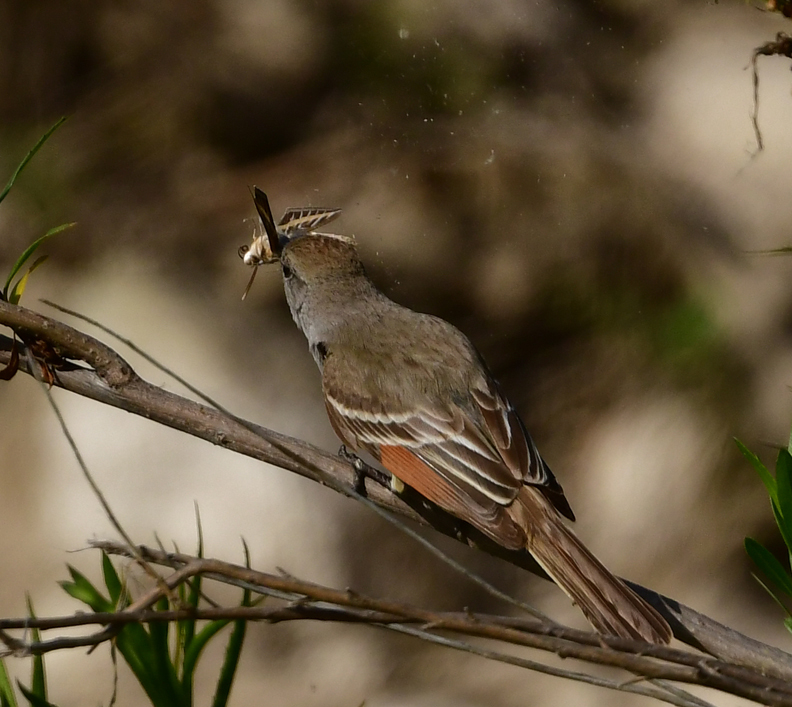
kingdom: Animalia
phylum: Chordata
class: Aves
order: Passeriformes
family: Tyrannidae
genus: Myiarchus
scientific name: Myiarchus cinerascens
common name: Ash-throated flycatcher
